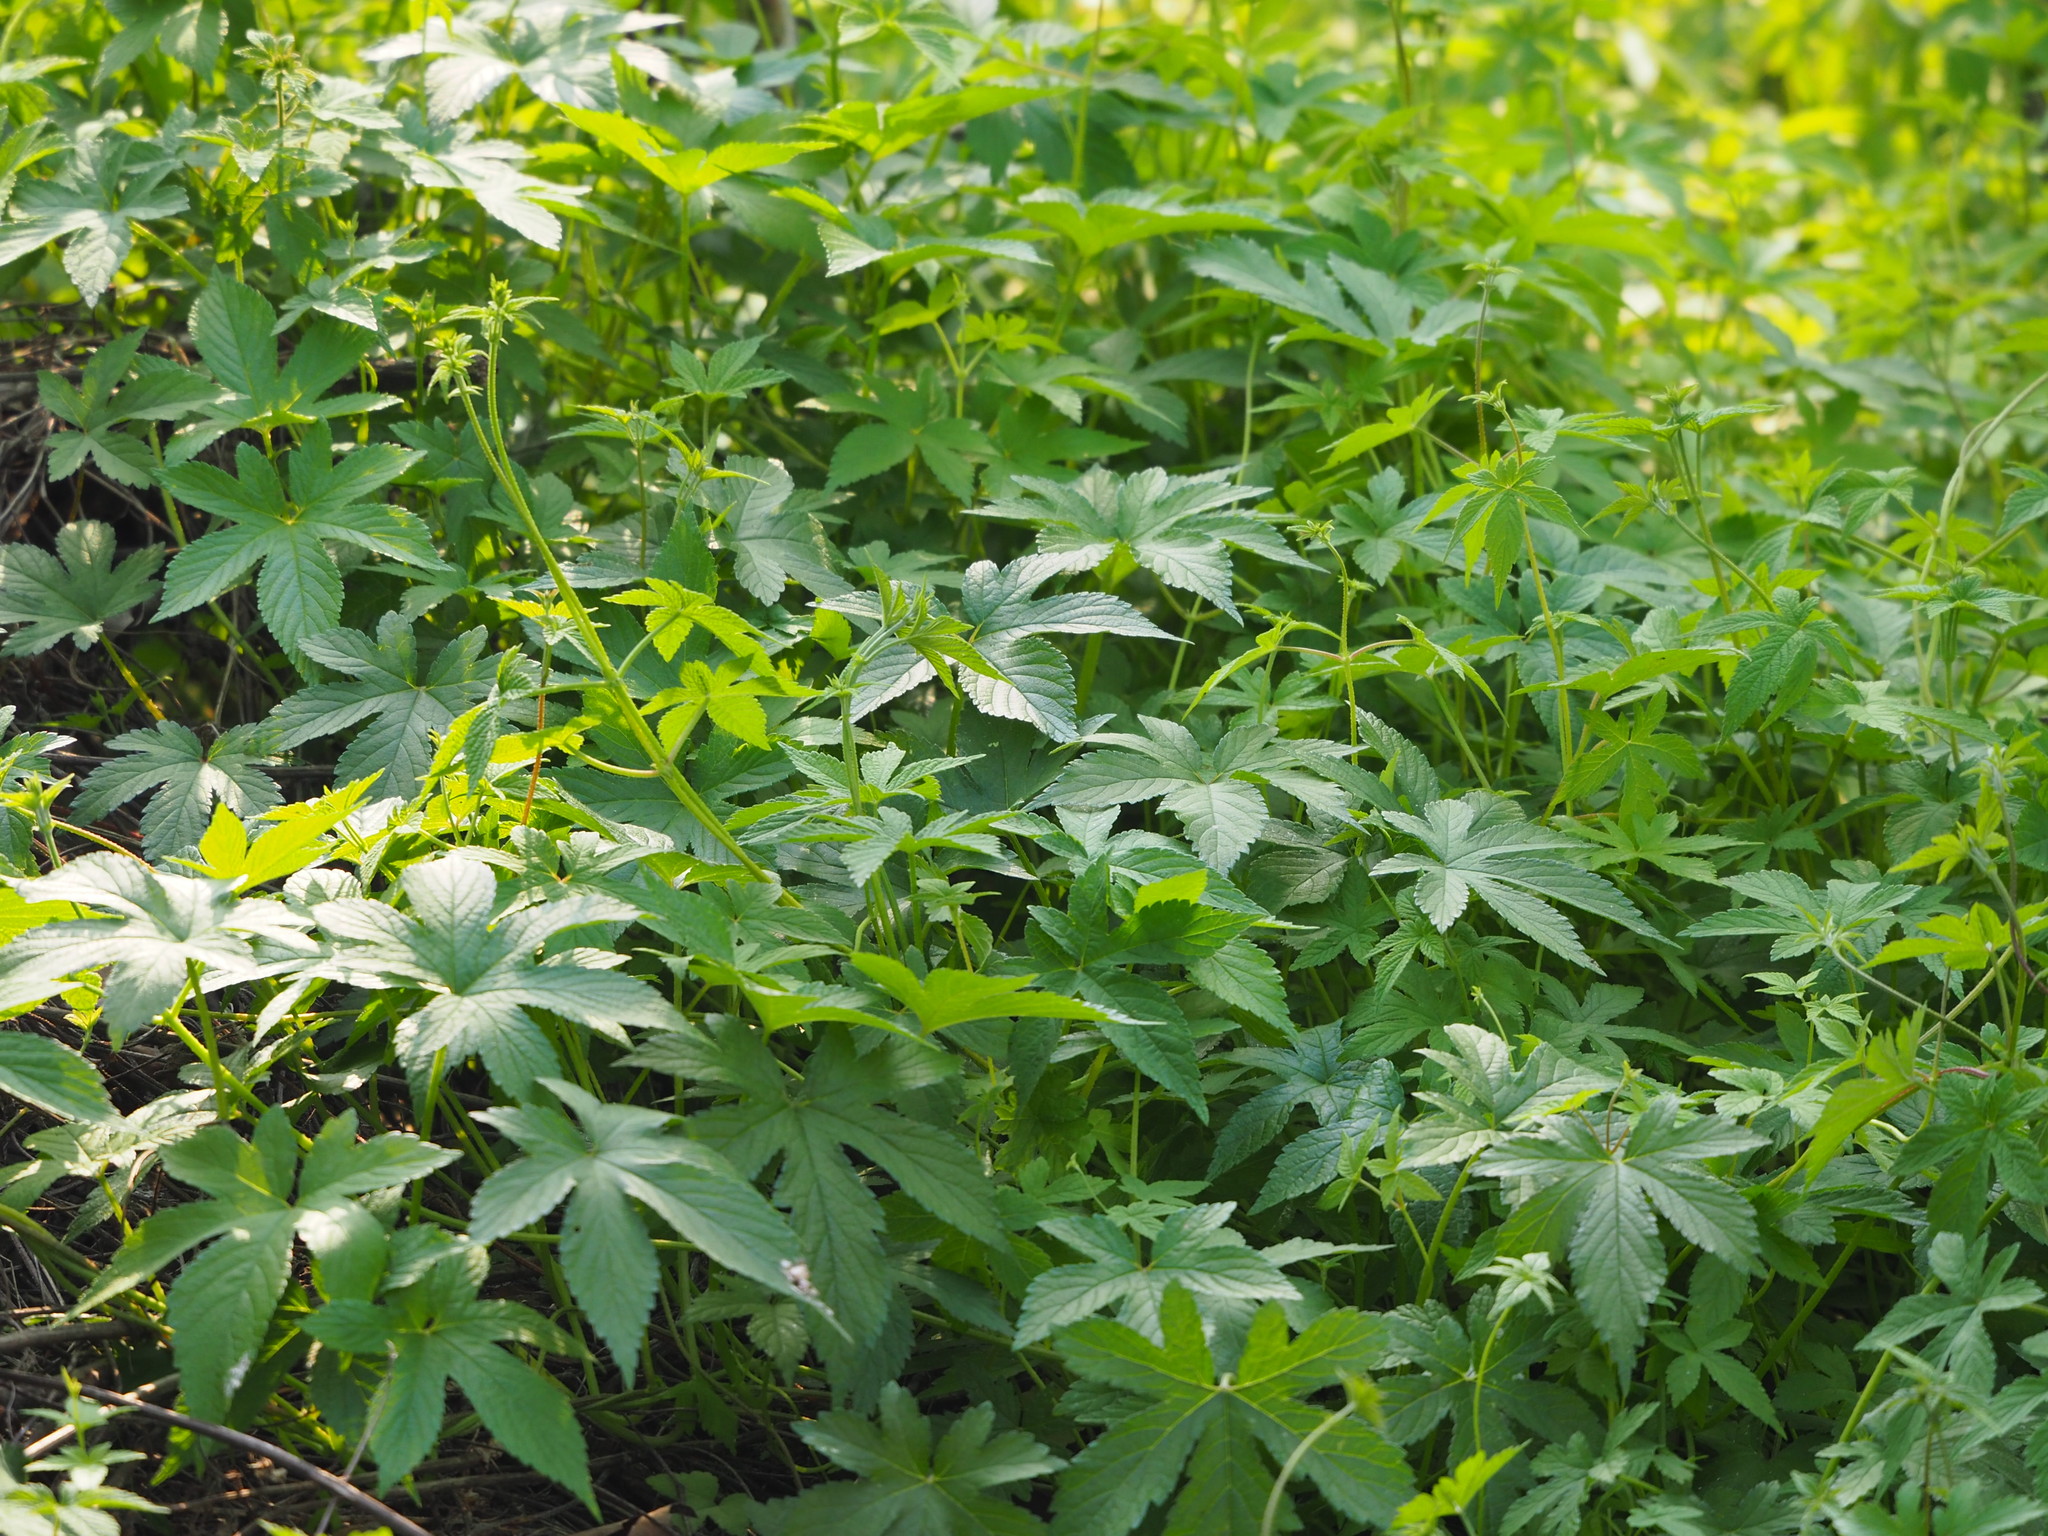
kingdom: Plantae
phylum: Tracheophyta
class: Magnoliopsida
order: Rosales
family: Cannabaceae
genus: Humulus
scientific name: Humulus scandens
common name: Japanese hop
